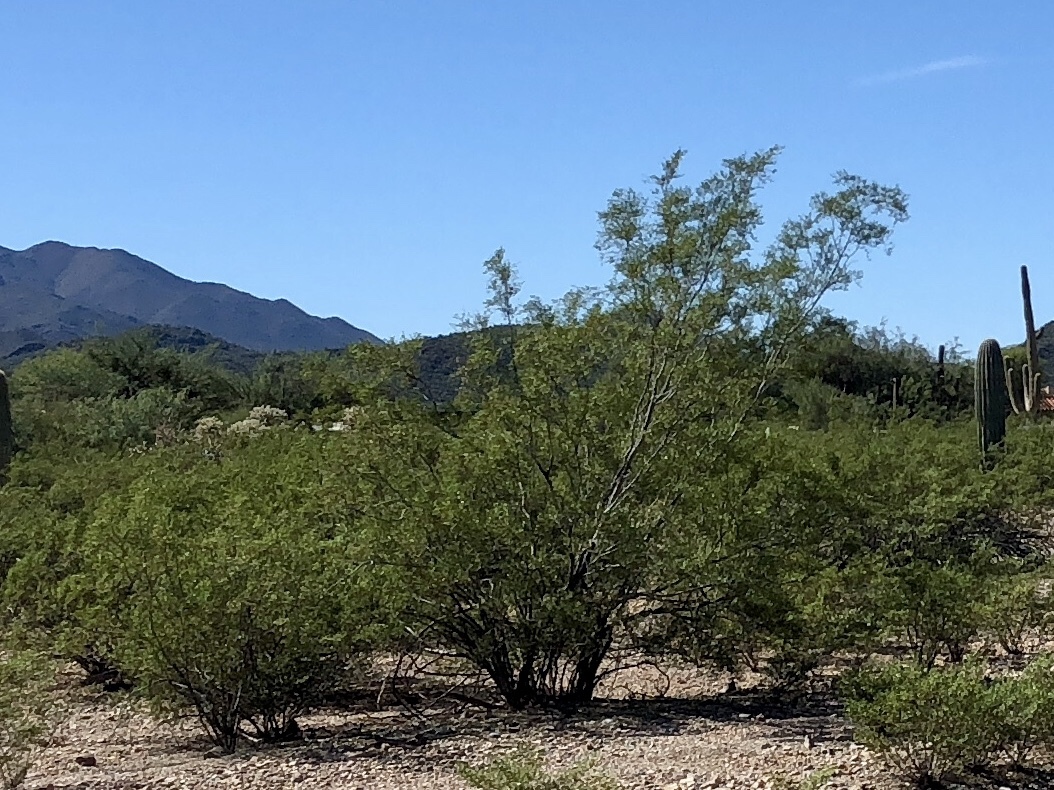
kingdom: Plantae
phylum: Tracheophyta
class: Magnoliopsida
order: Zygophyllales
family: Zygophyllaceae
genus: Larrea
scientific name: Larrea tridentata
